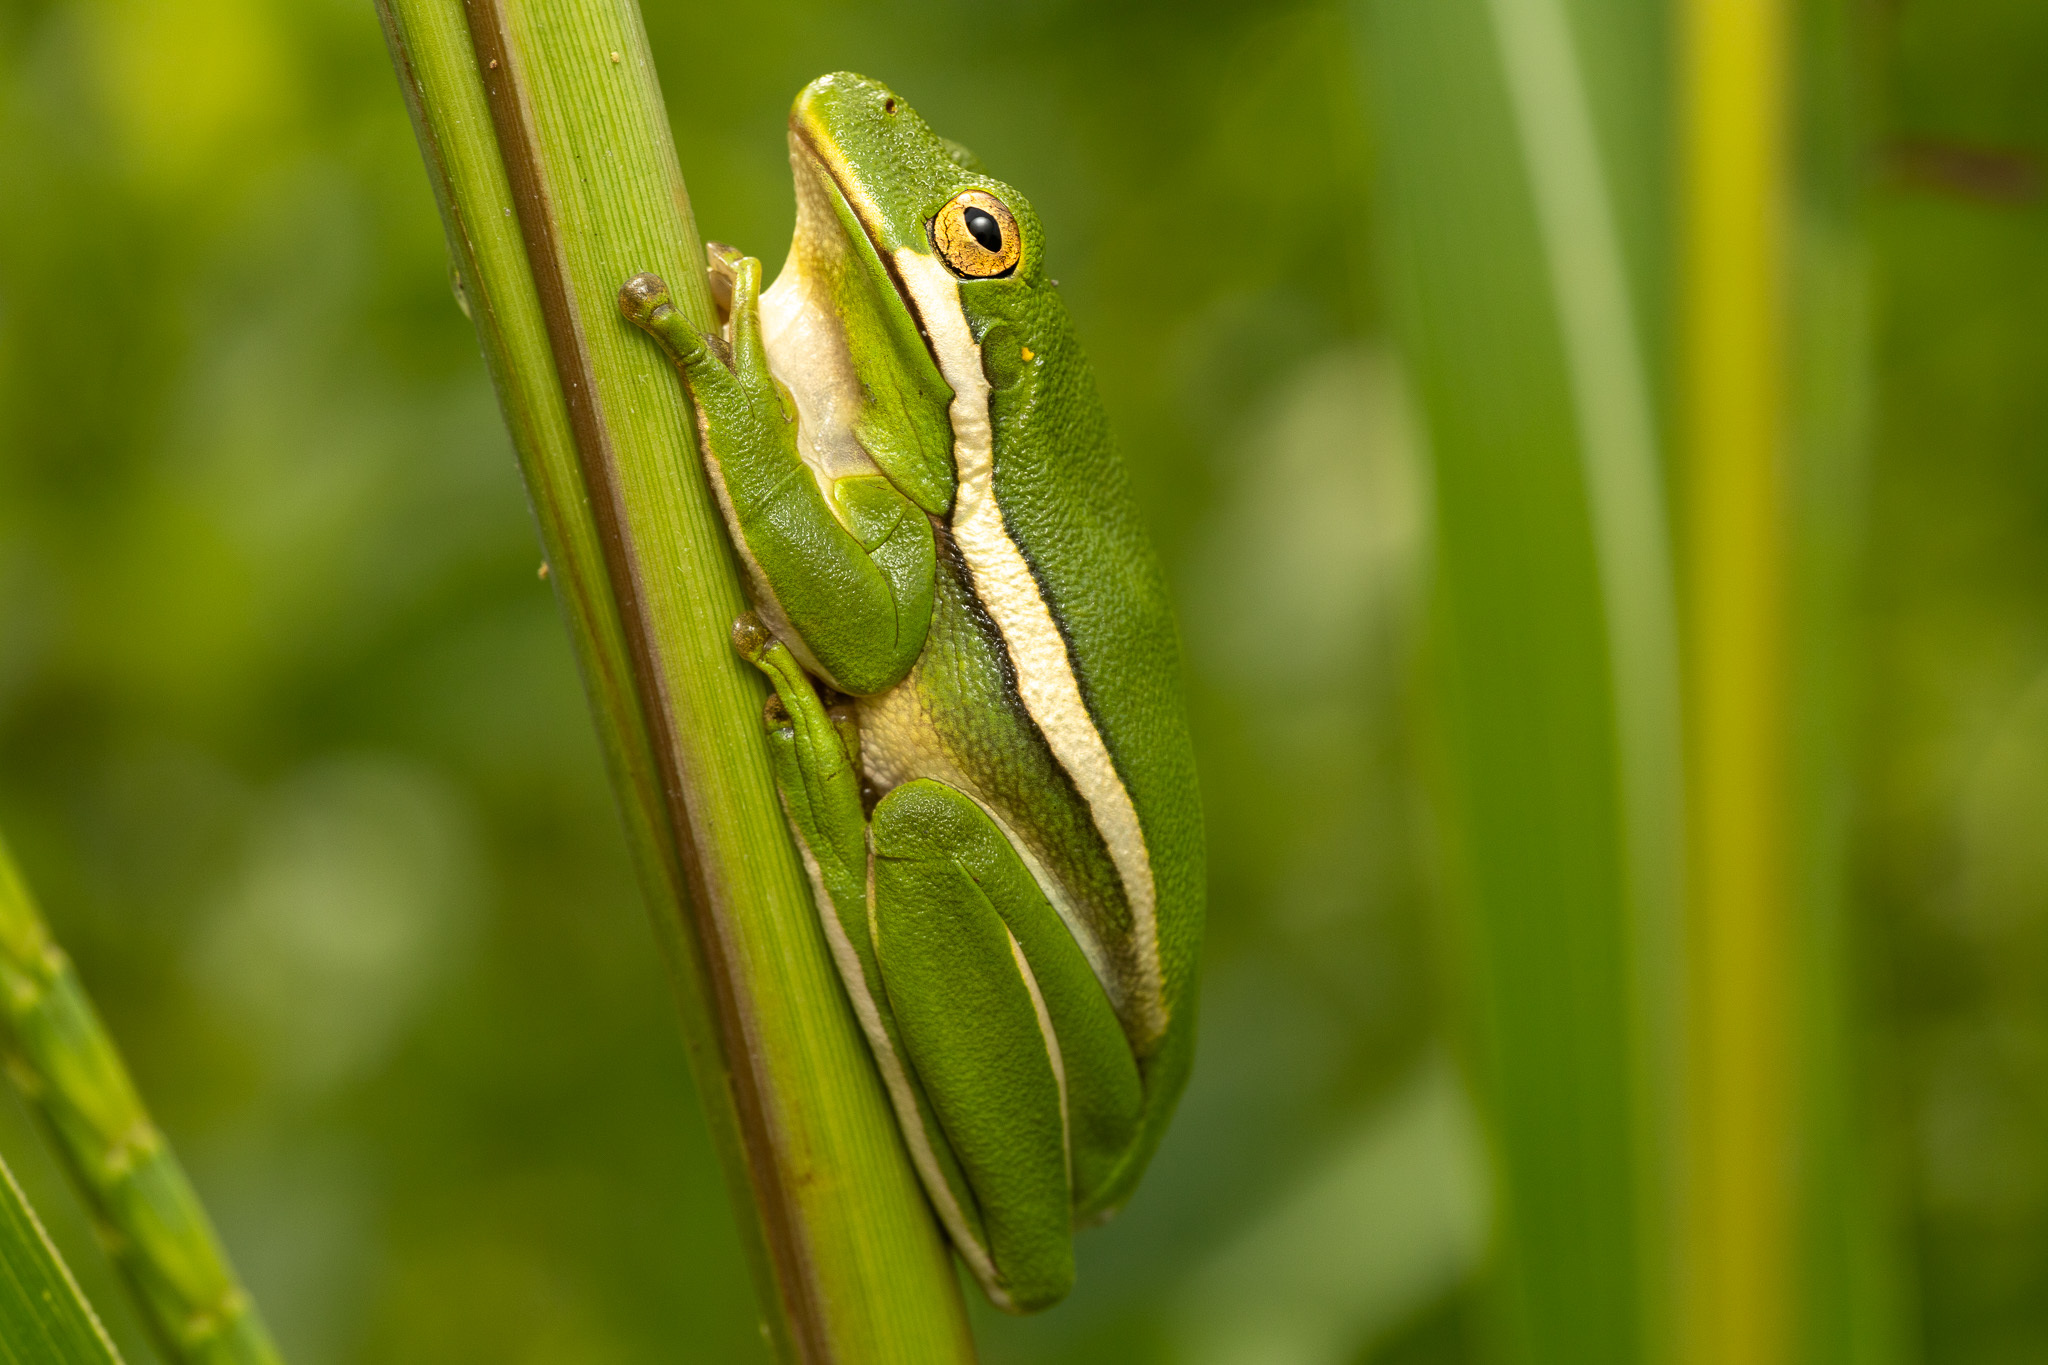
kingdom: Animalia
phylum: Chordata
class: Amphibia
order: Anura
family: Hylidae
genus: Dryophytes
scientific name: Dryophytes cinereus
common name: Green treefrog
